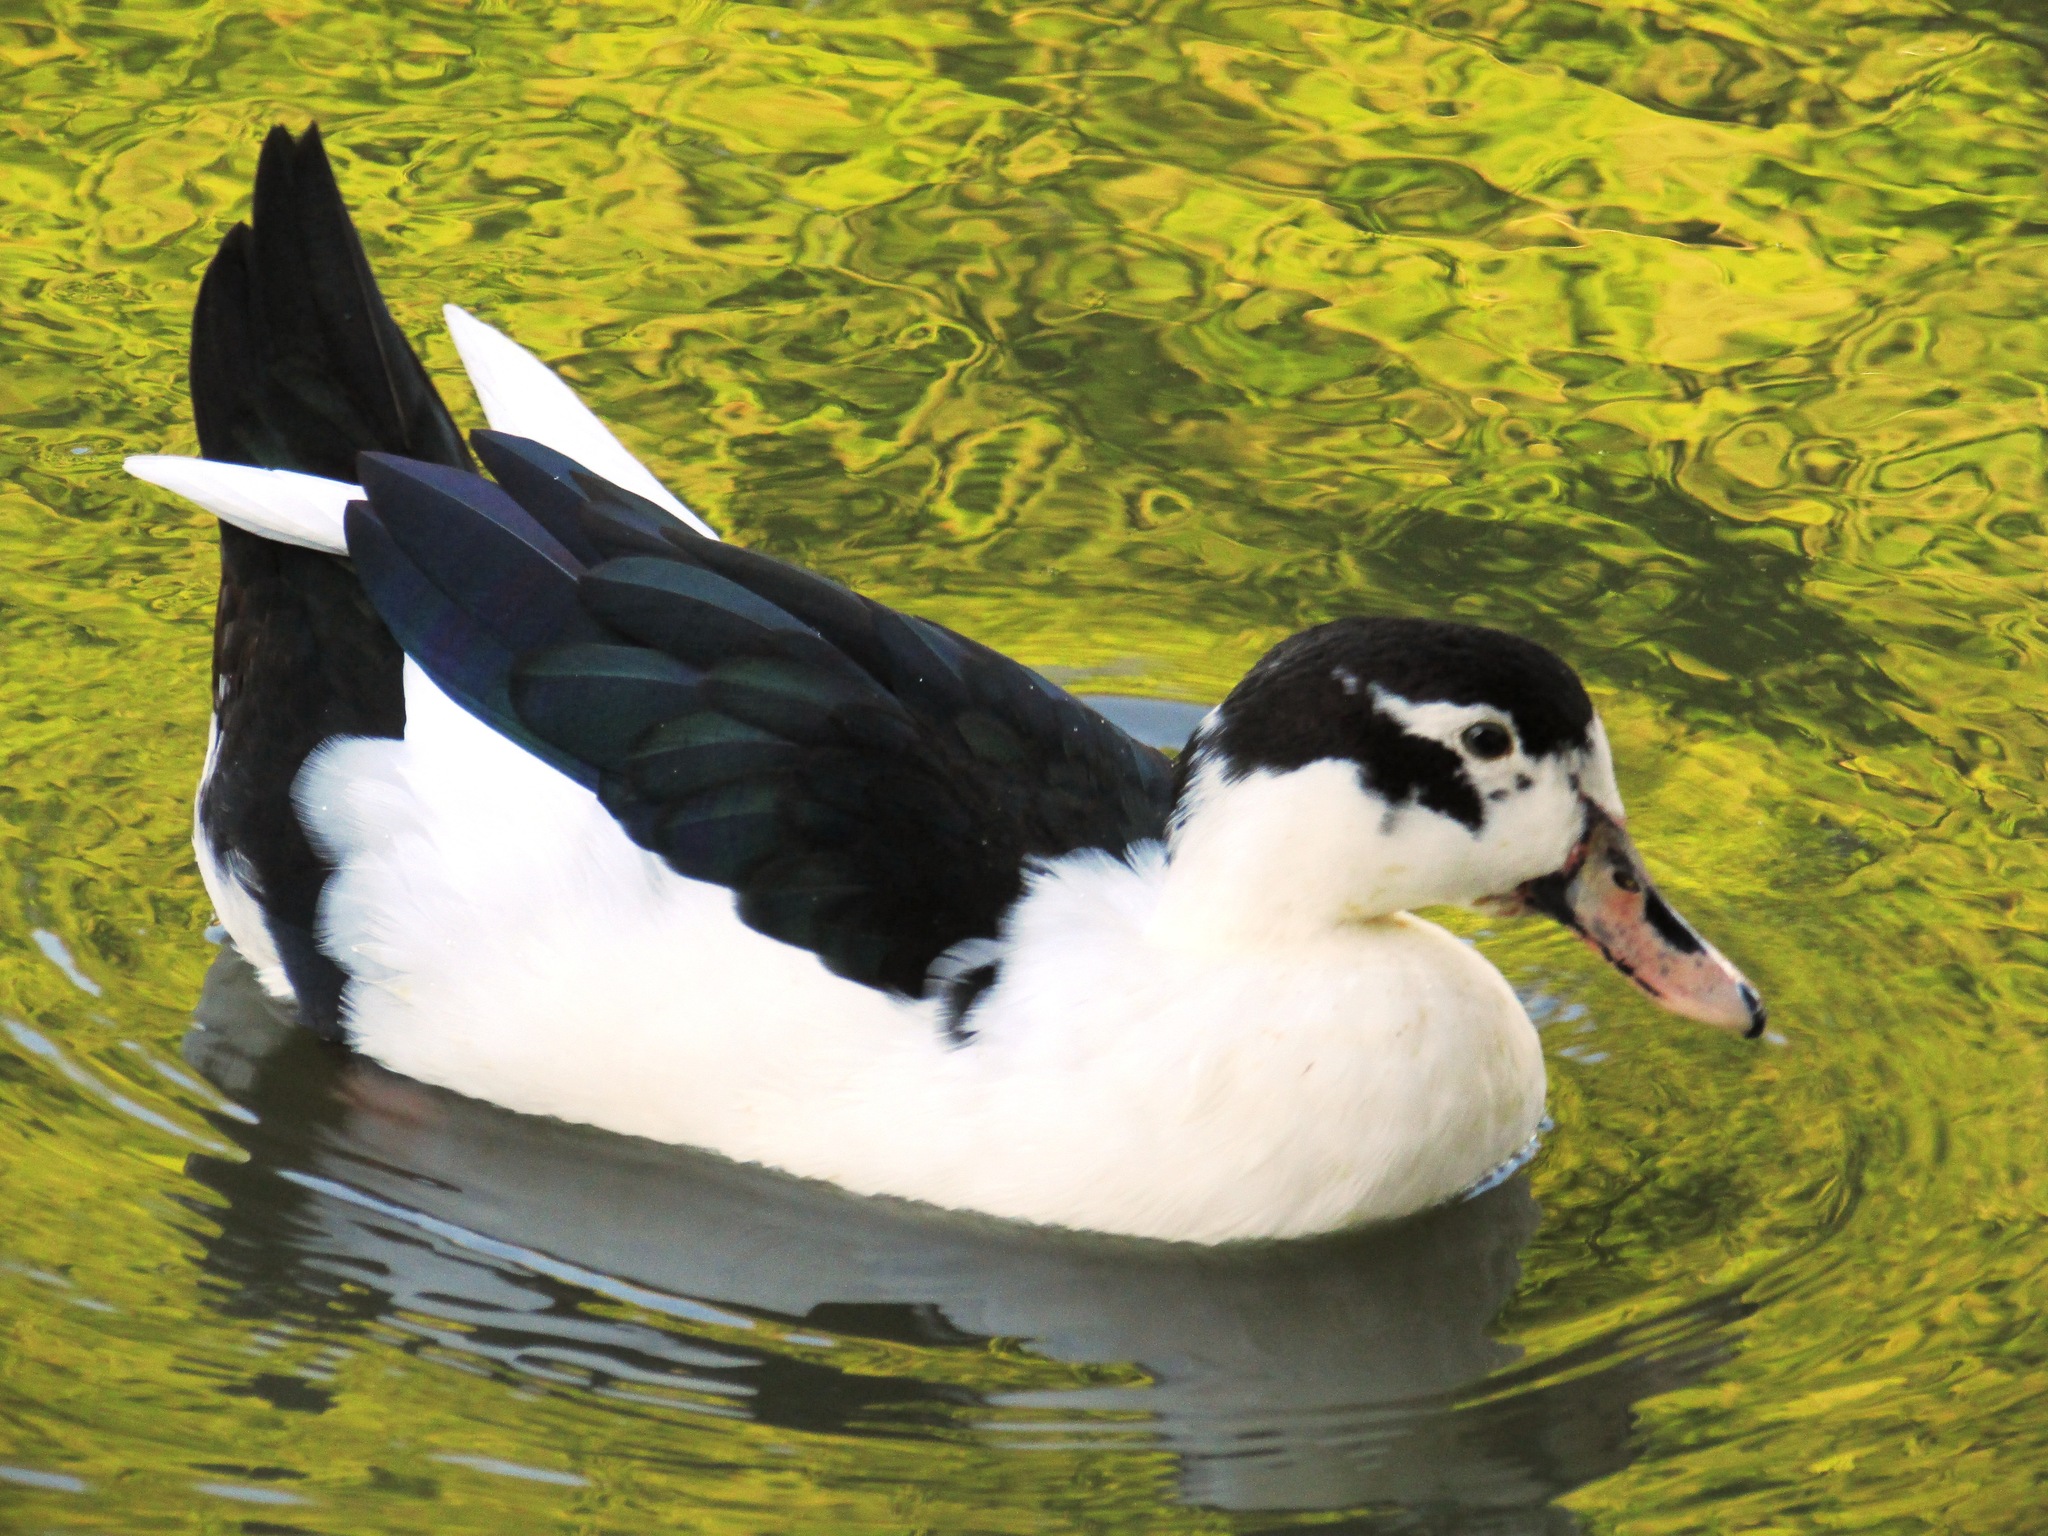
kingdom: Animalia
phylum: Chordata
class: Aves
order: Anseriformes
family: Anatidae
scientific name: Anatidae
